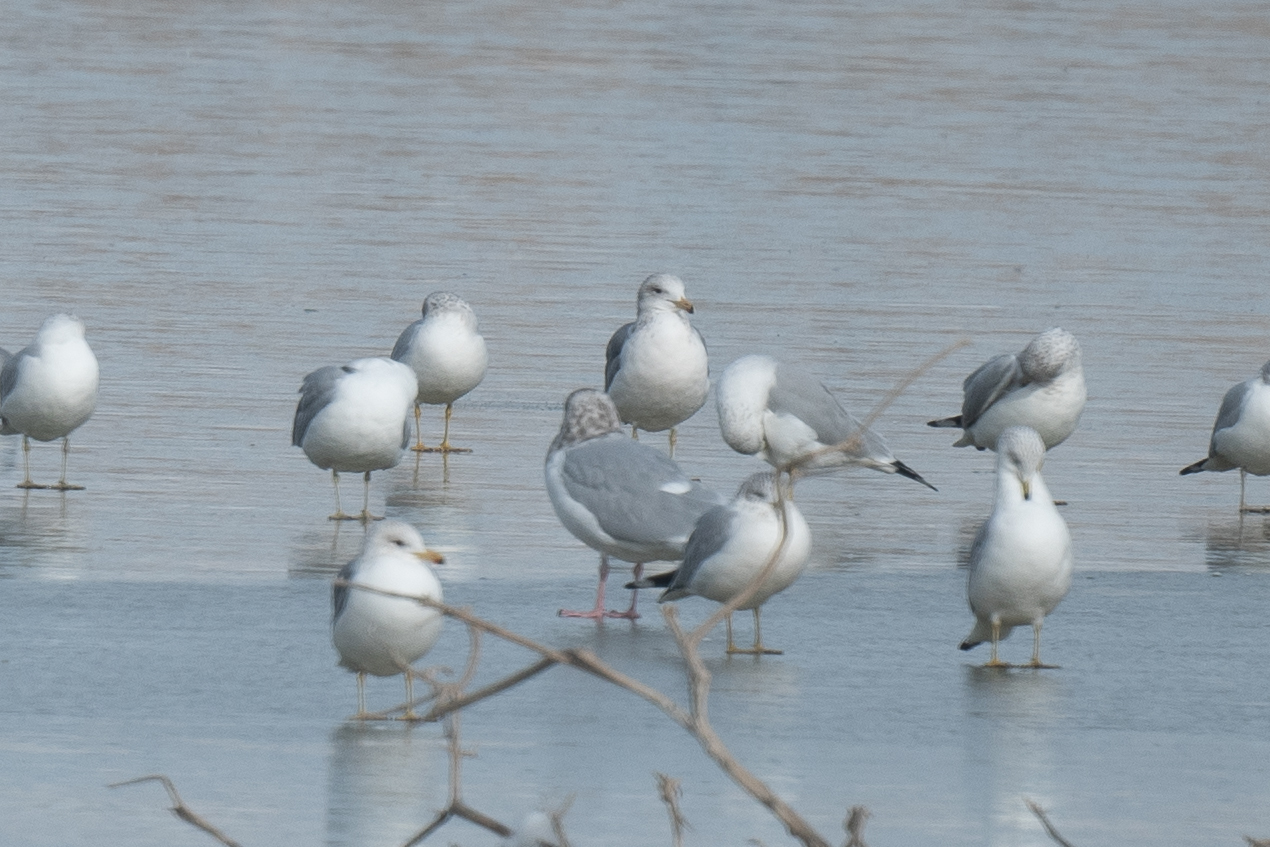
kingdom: Animalia
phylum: Chordata
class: Aves
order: Charadriiformes
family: Laridae
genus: Larus
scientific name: Larus argentatus
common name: Herring gull
